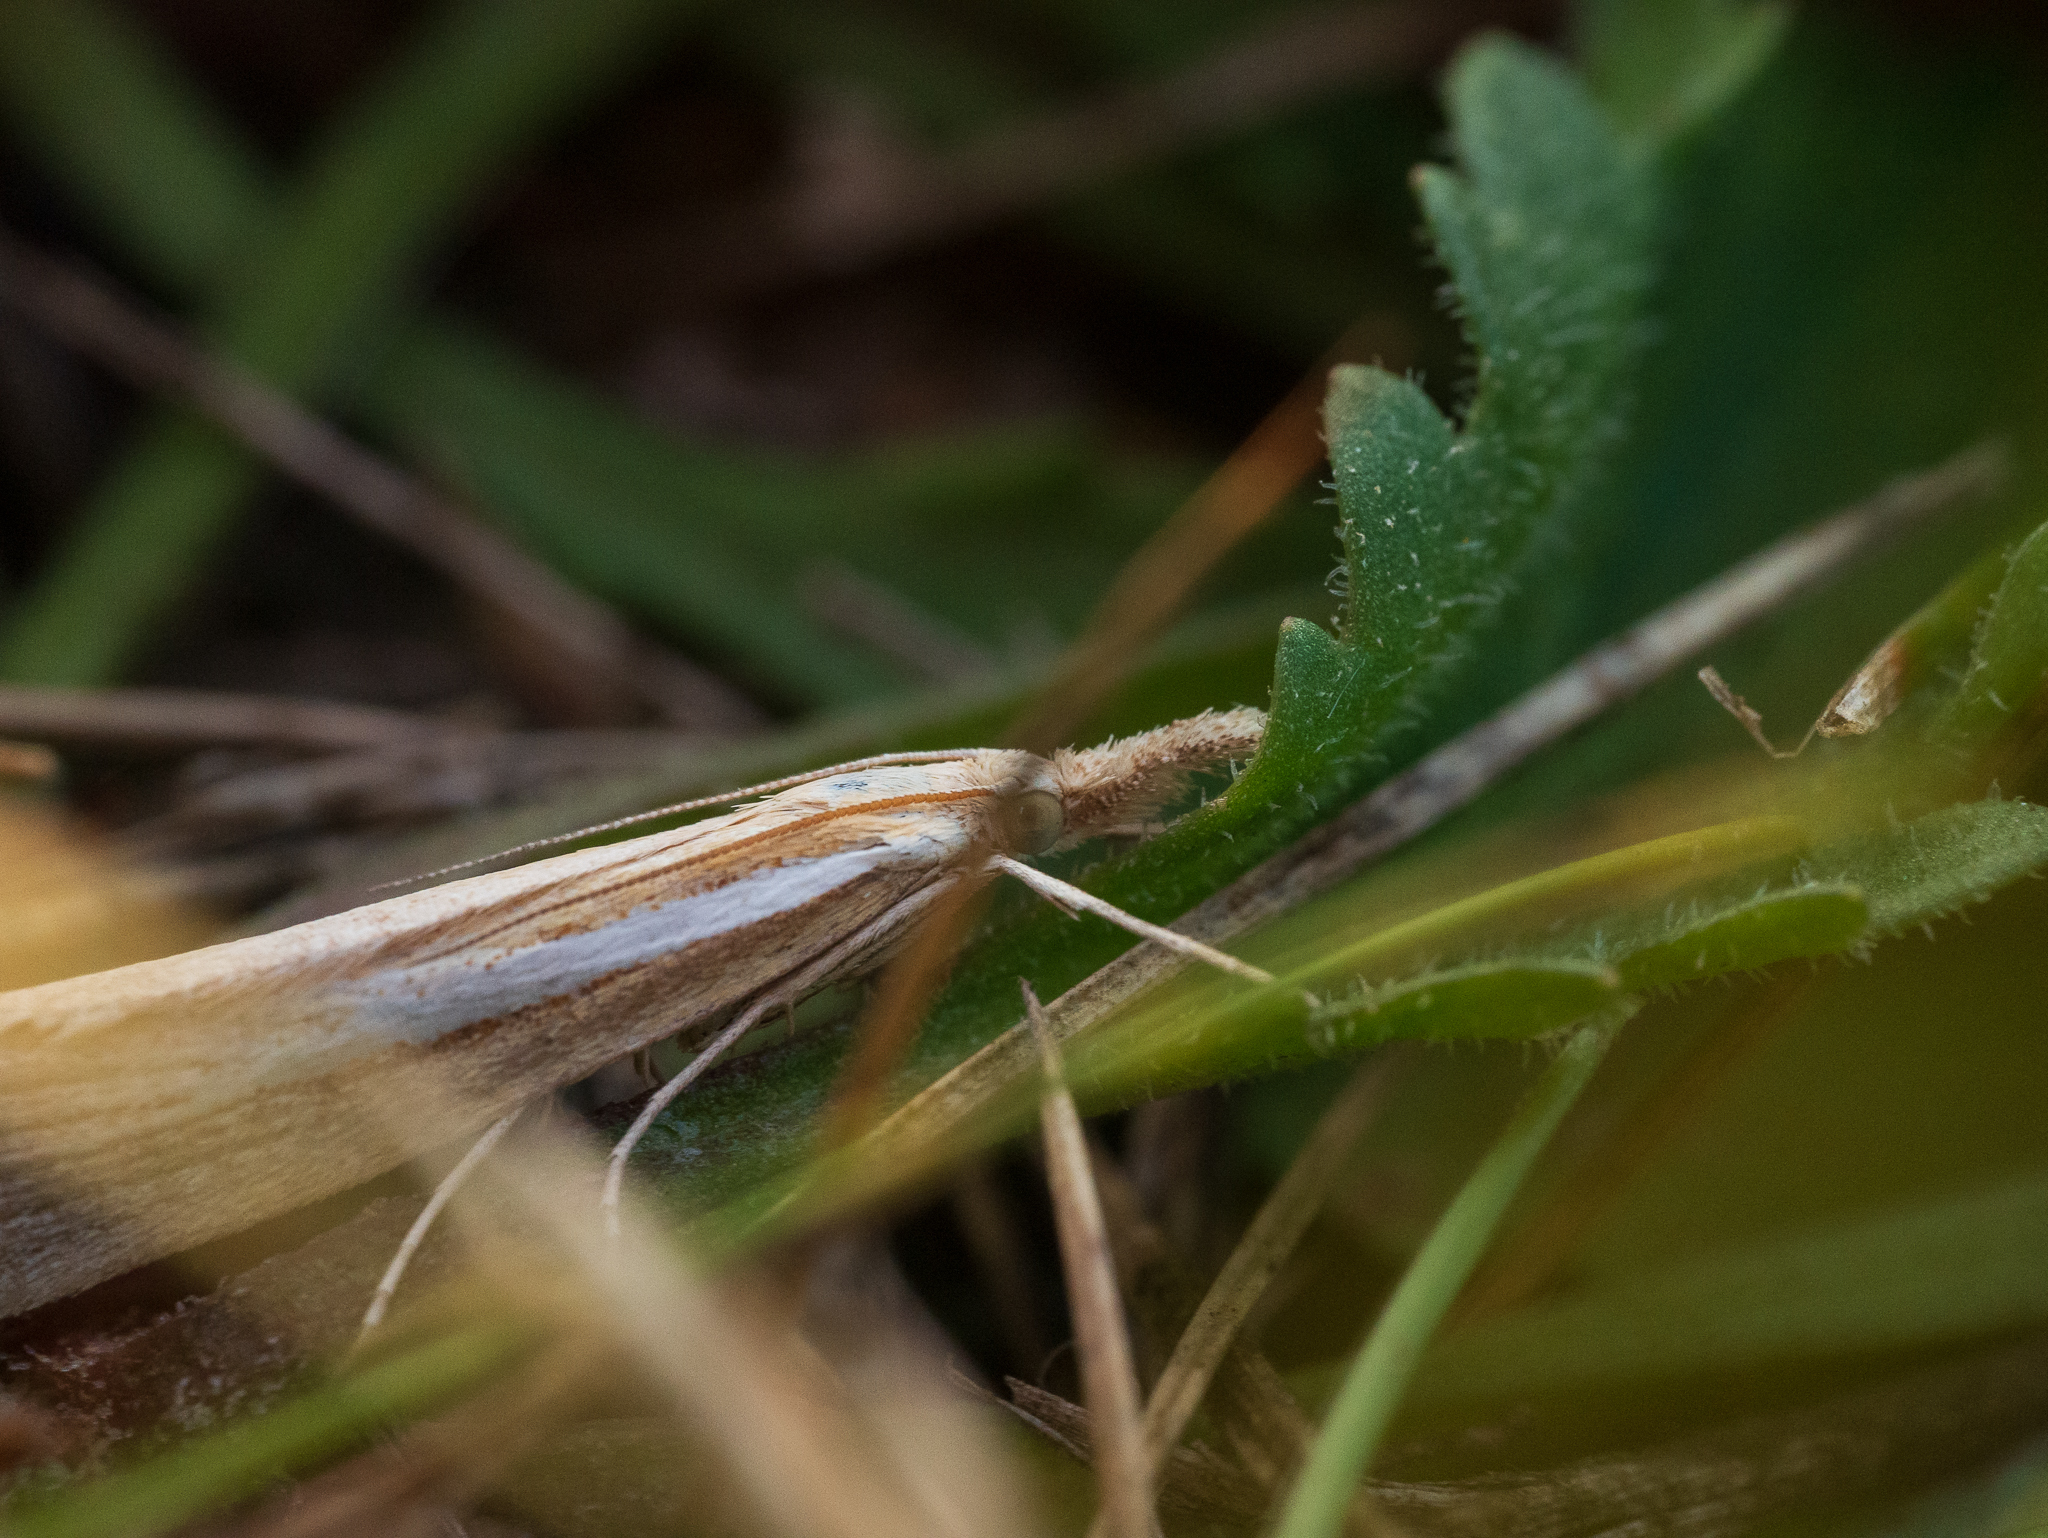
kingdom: Animalia
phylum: Arthropoda
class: Insecta
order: Lepidoptera
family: Crambidae
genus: Agriphila
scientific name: Agriphila tristellus
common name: Common grass-veneer
